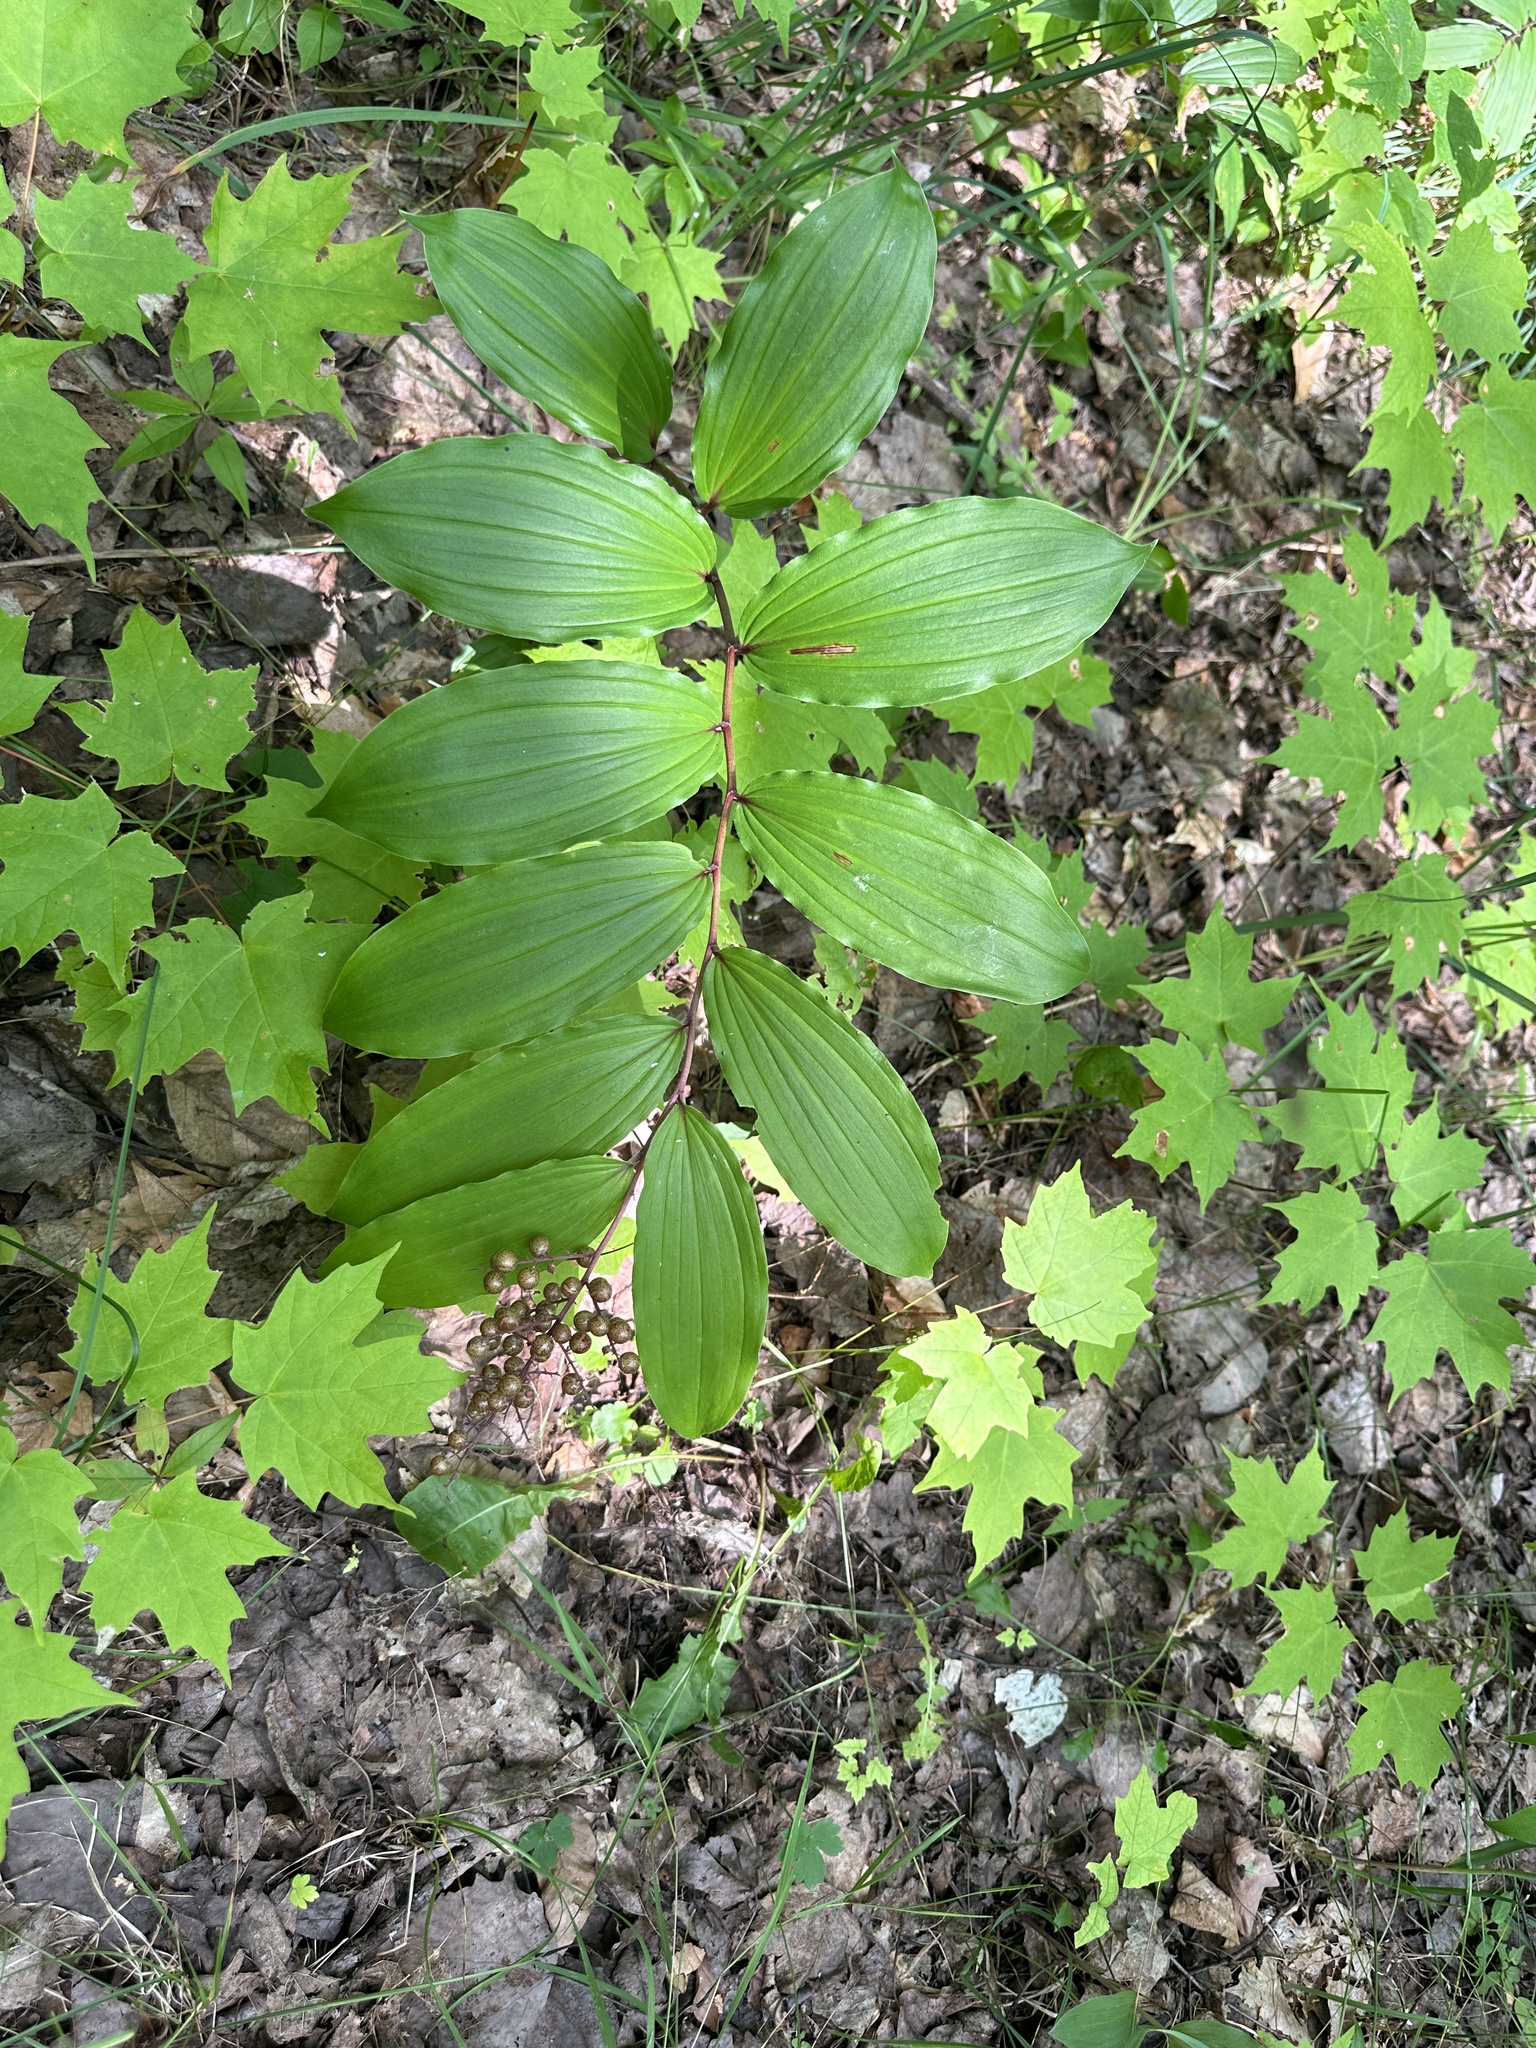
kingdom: Plantae
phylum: Tracheophyta
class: Liliopsida
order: Asparagales
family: Asparagaceae
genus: Maianthemum
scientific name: Maianthemum racemosum
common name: False spikenard
